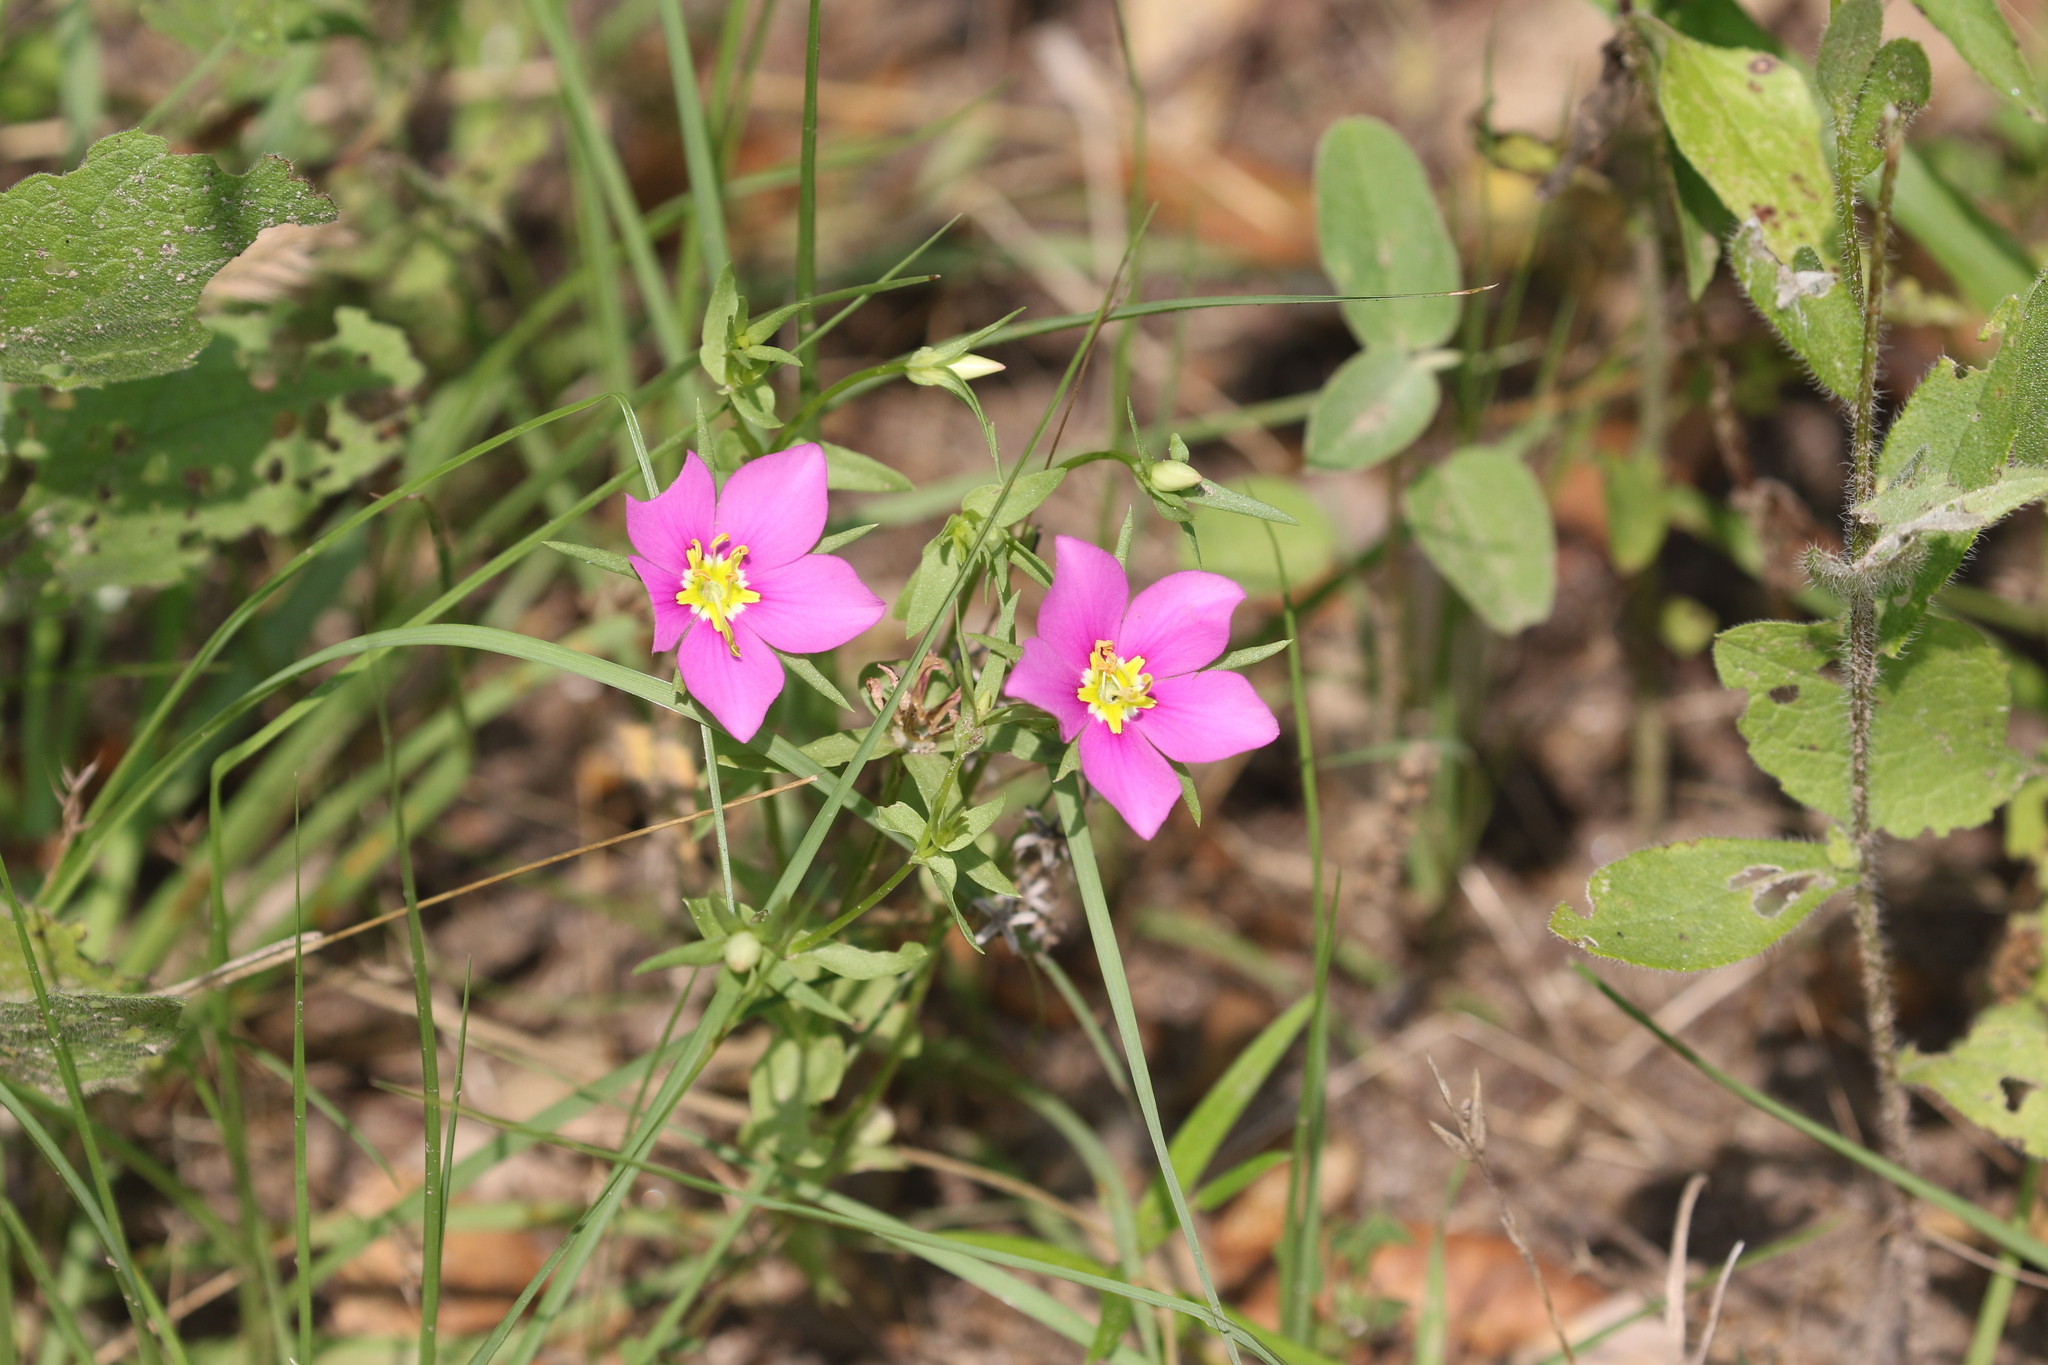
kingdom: Plantae
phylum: Tracheophyta
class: Magnoliopsida
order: Gentianales
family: Gentianaceae
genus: Sabatia
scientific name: Sabatia campestris
